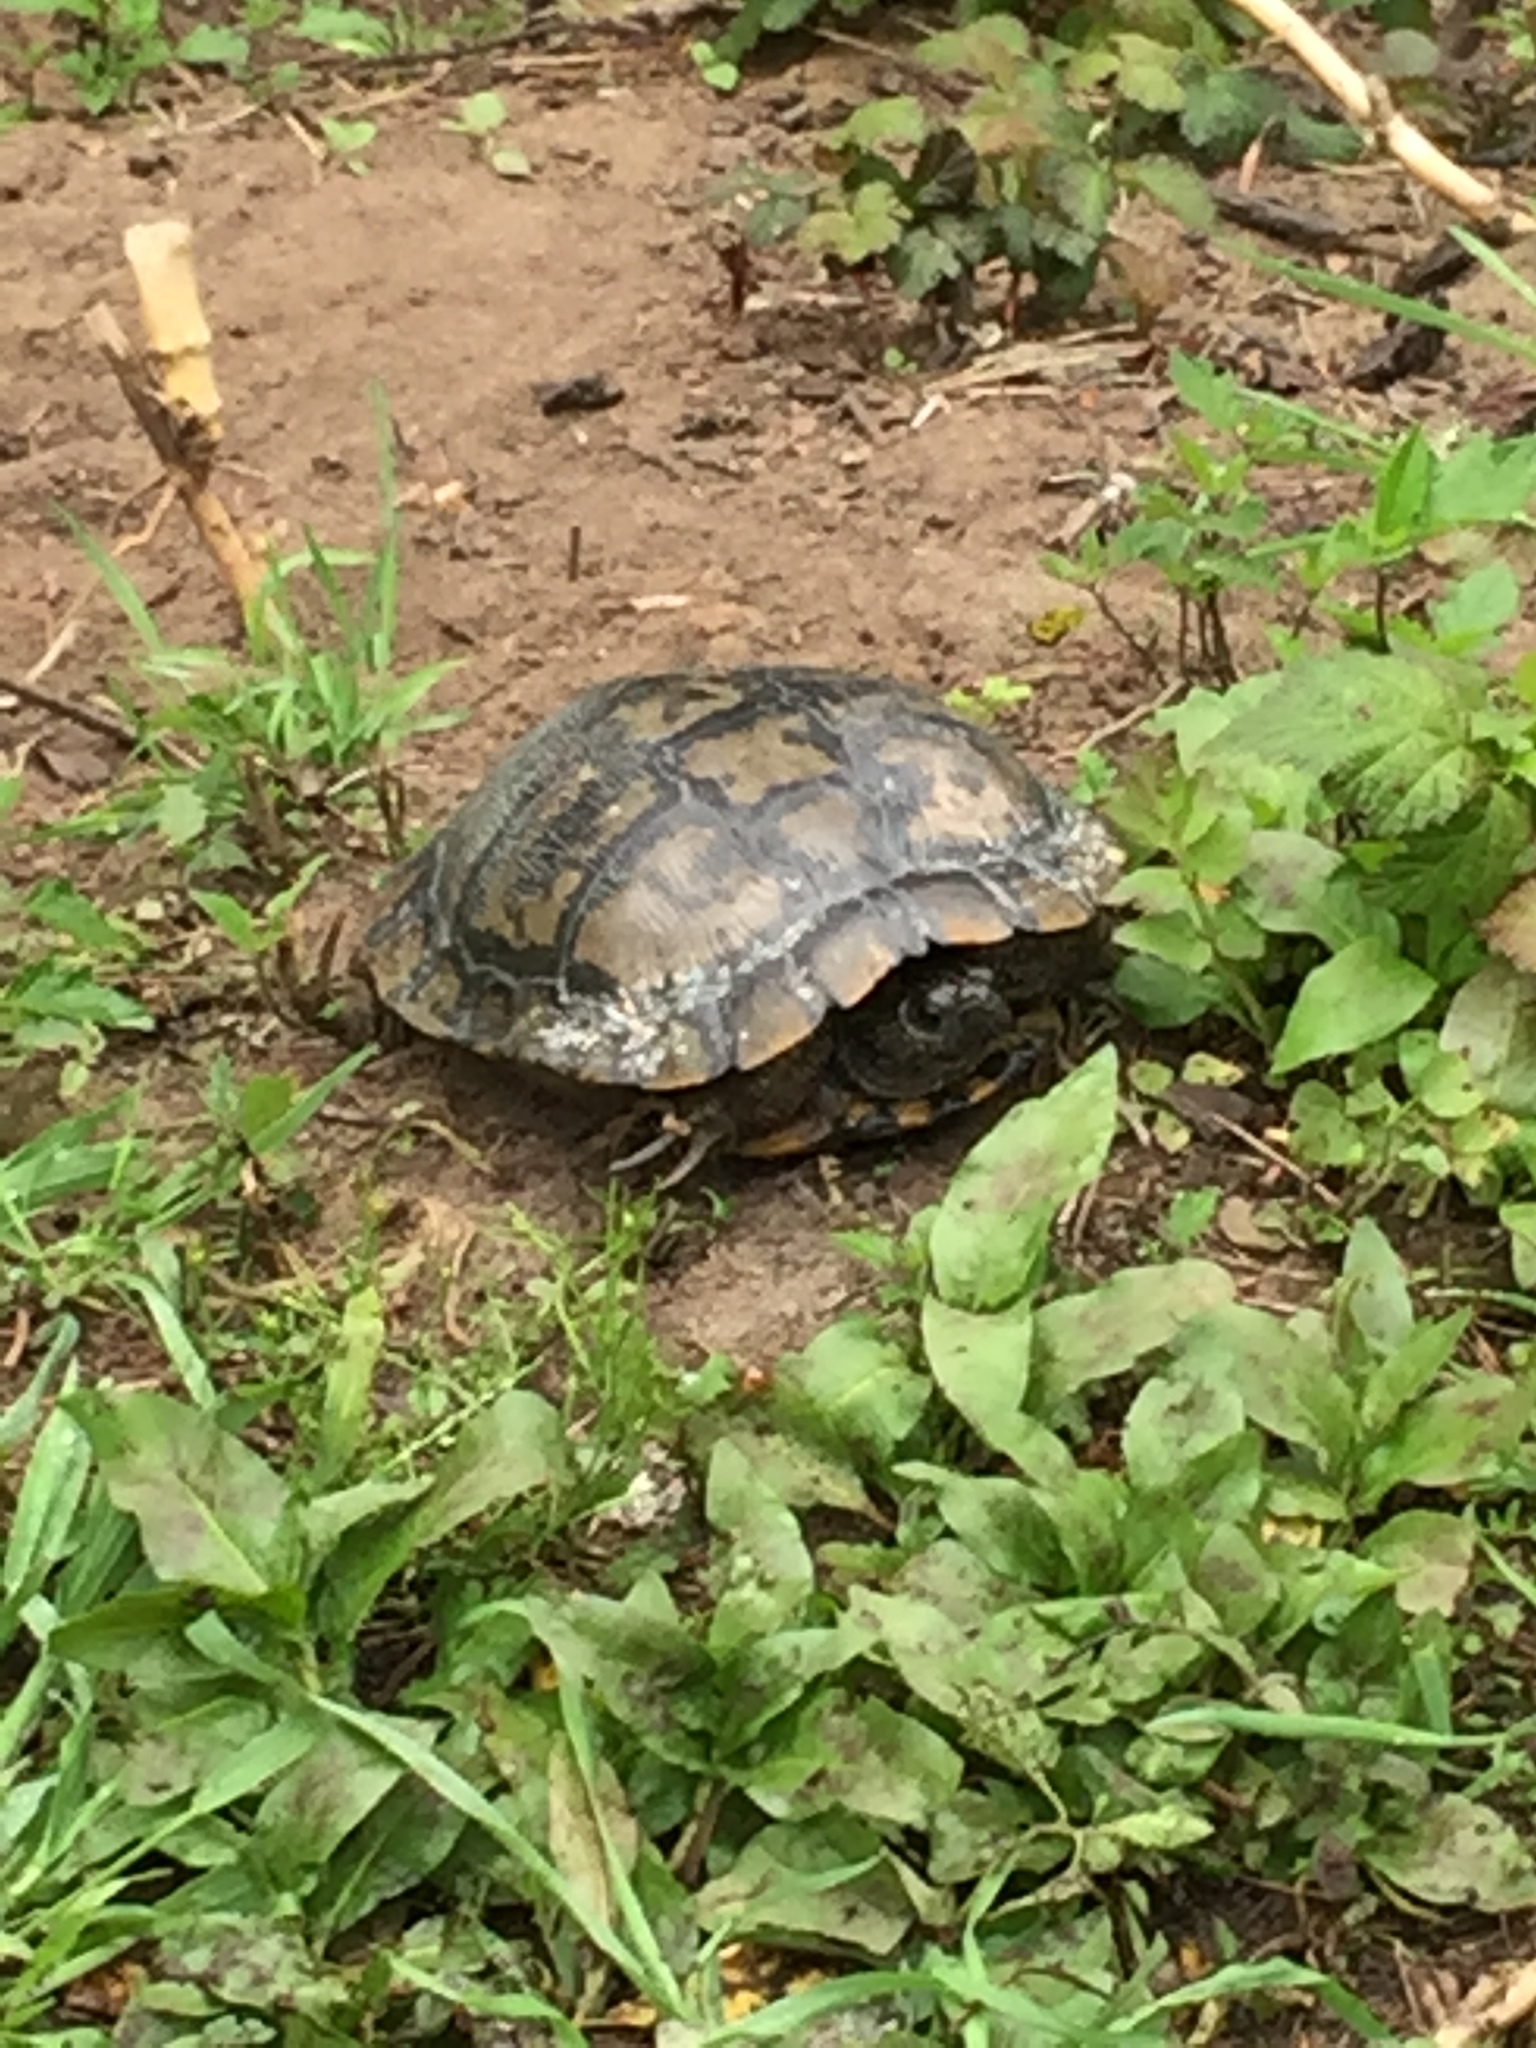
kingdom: Animalia
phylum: Chordata
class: Testudines
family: Emydidae
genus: Trachemys
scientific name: Trachemys scripta
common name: Slider
